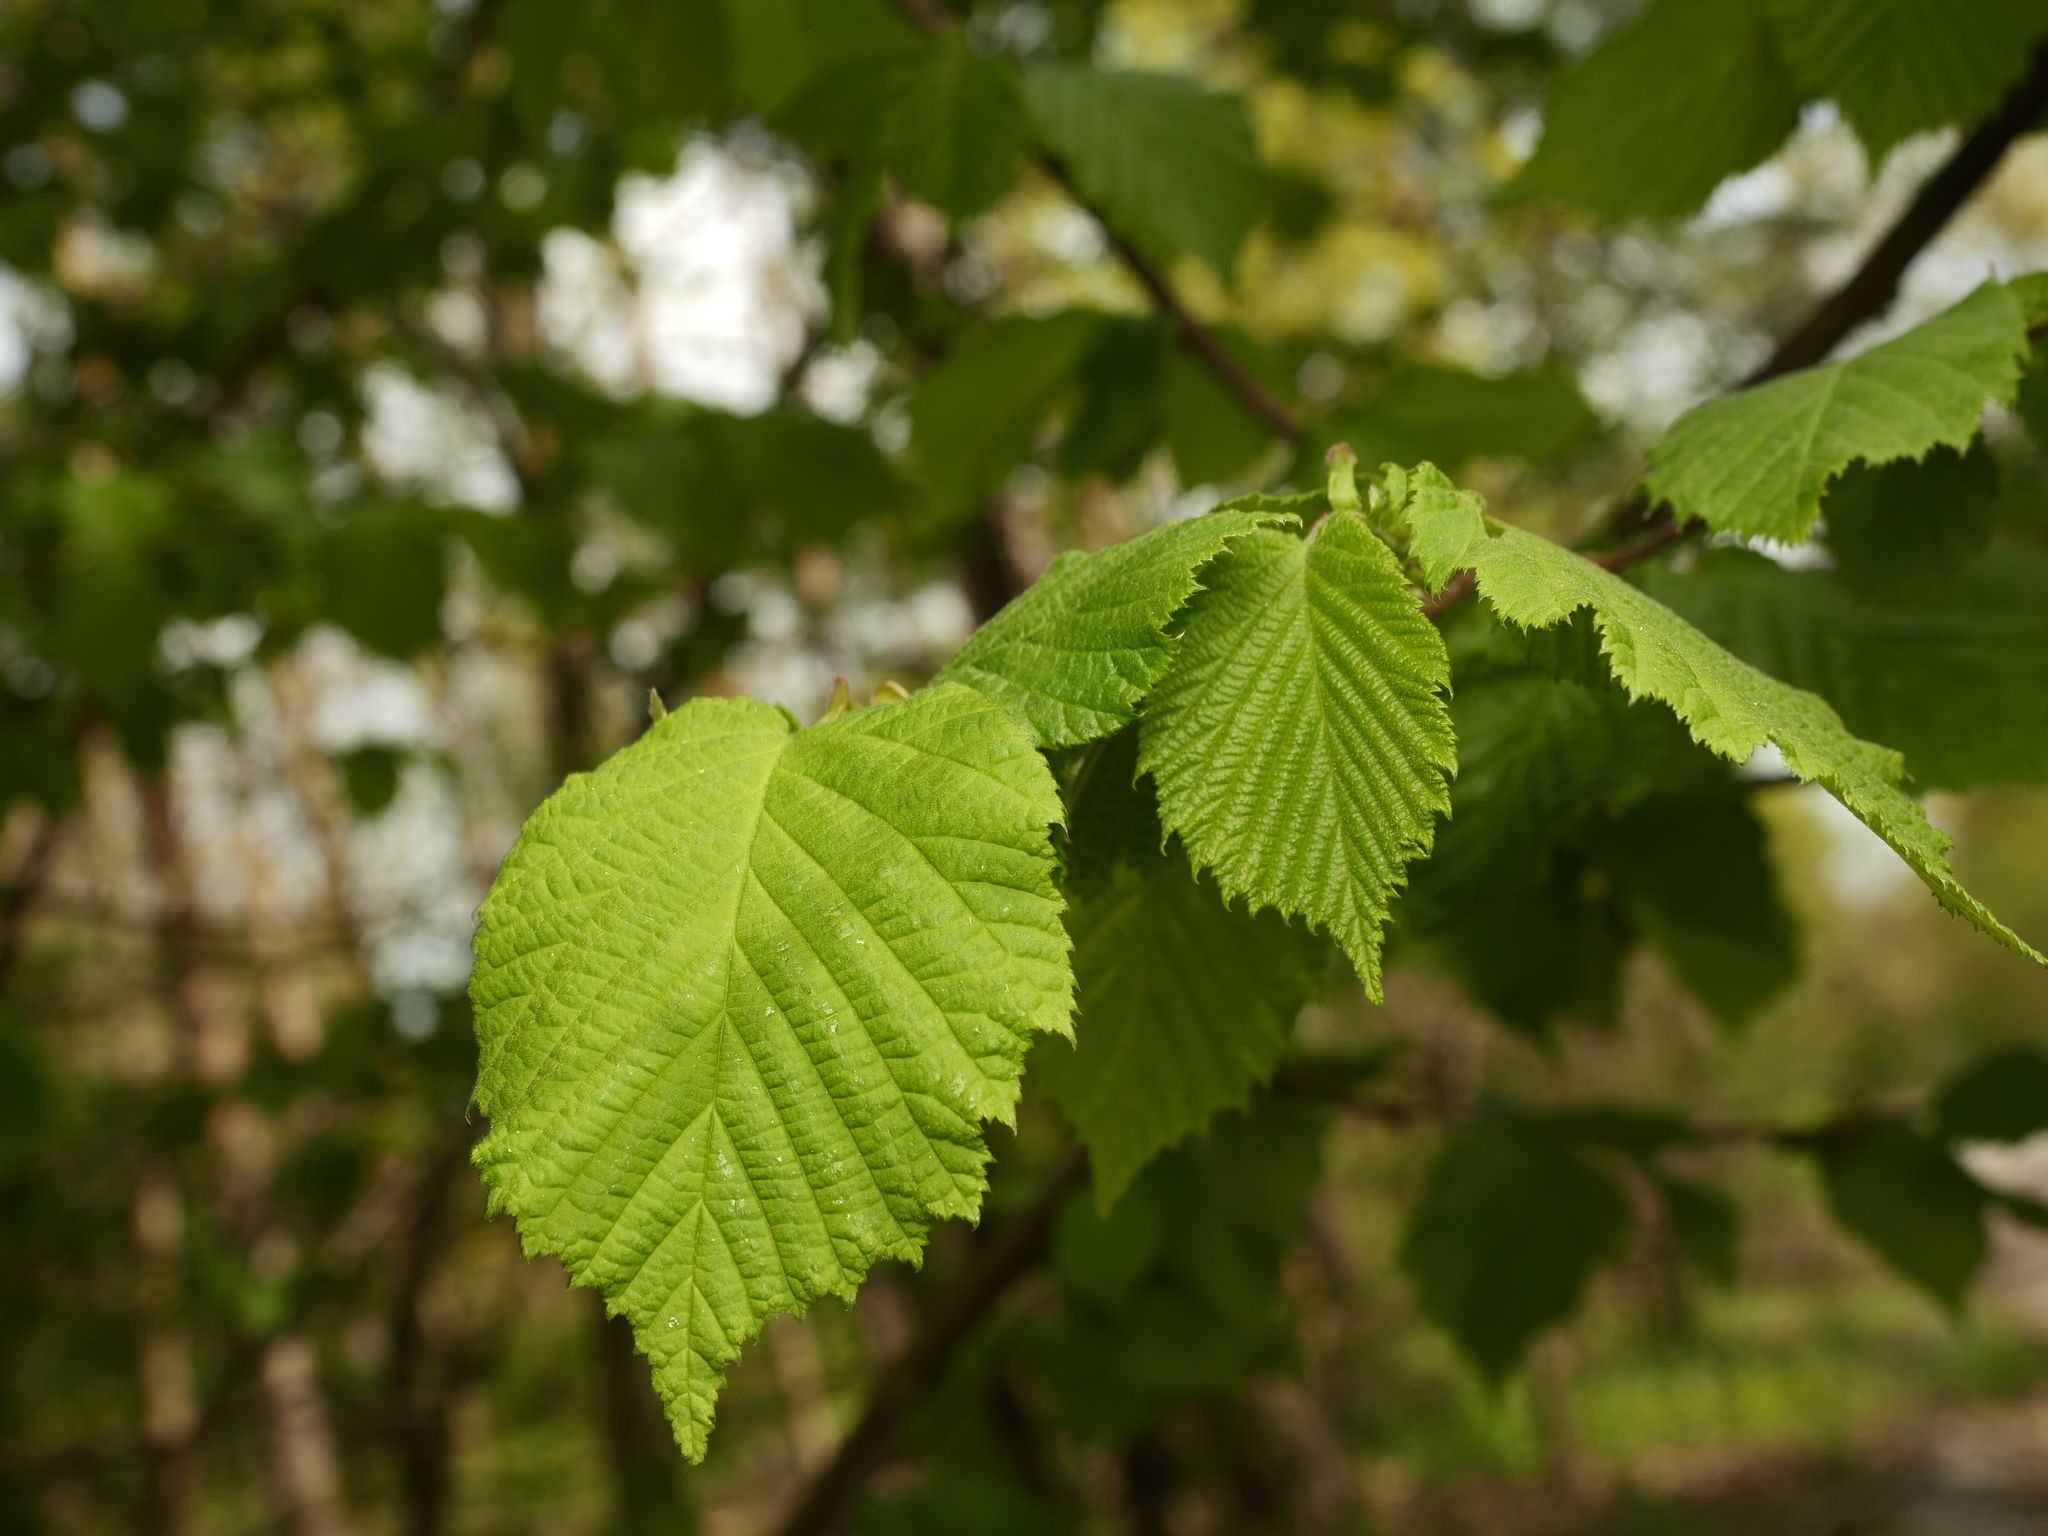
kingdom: Plantae
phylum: Tracheophyta
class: Magnoliopsida
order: Fagales
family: Betulaceae
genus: Corylus
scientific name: Corylus avellana
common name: European hazel
